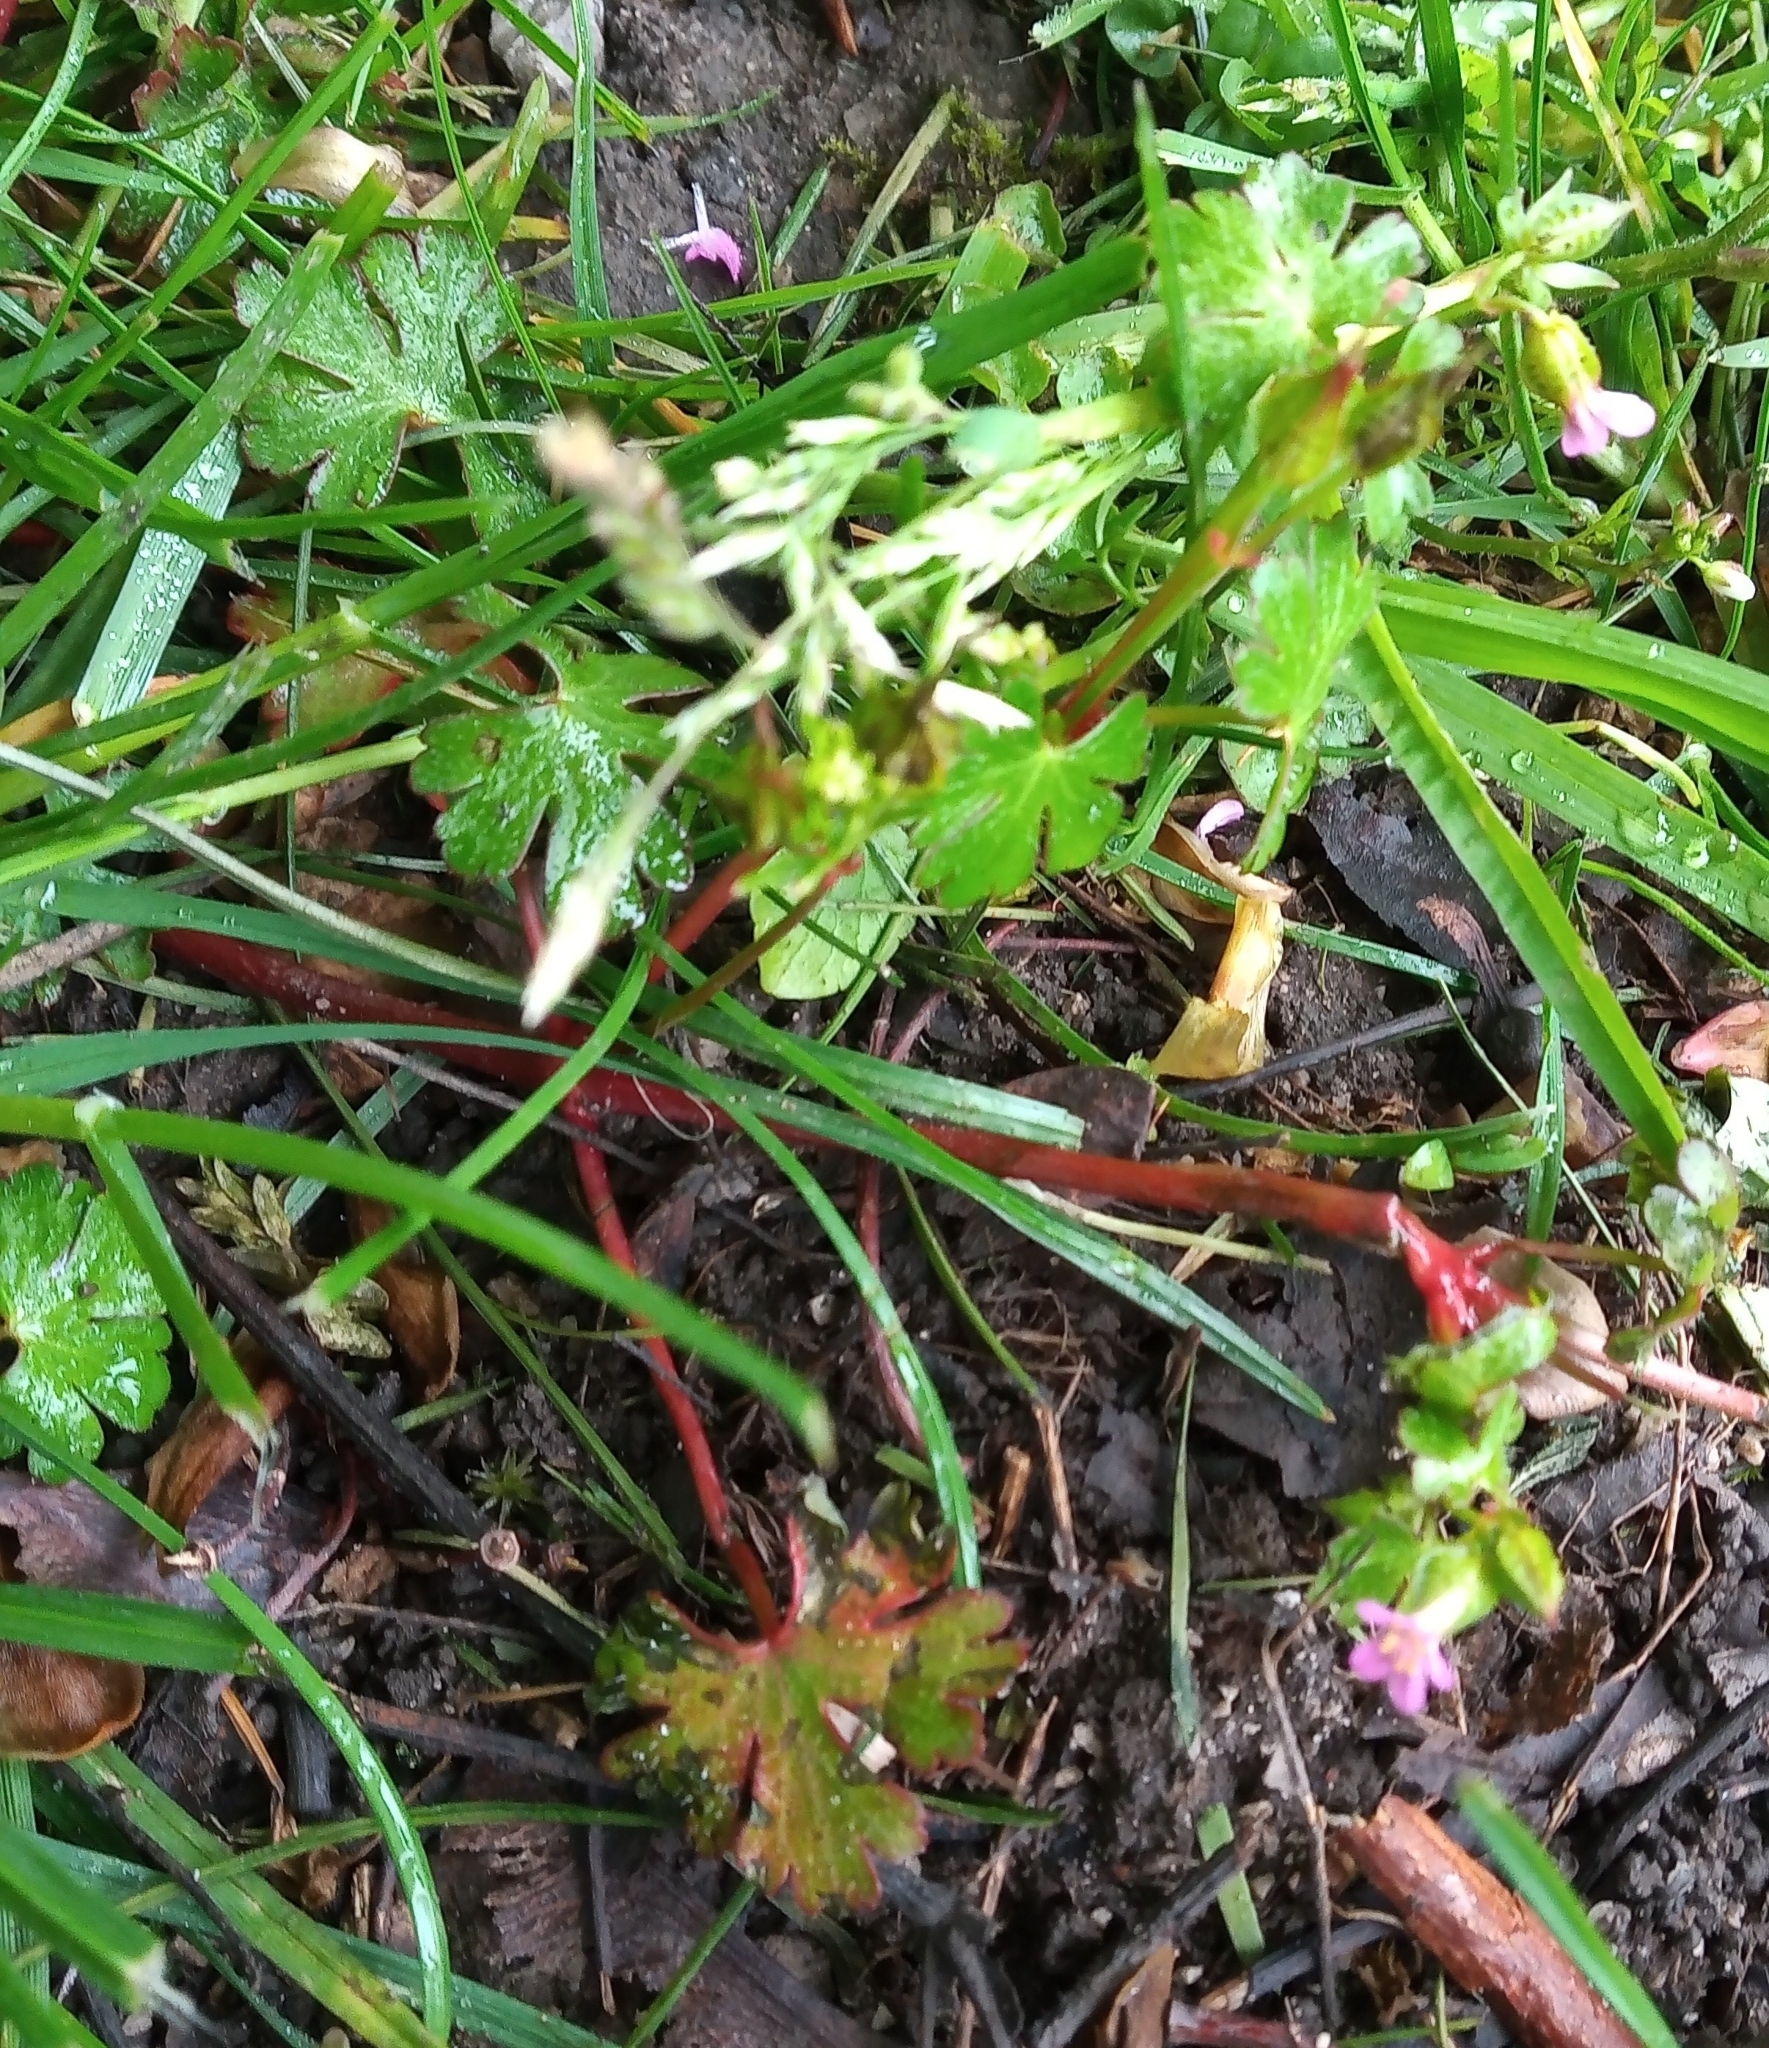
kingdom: Plantae
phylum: Tracheophyta
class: Magnoliopsida
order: Geraniales
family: Geraniaceae
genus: Geranium
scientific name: Geranium lucidum
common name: Shining crane's-bill
